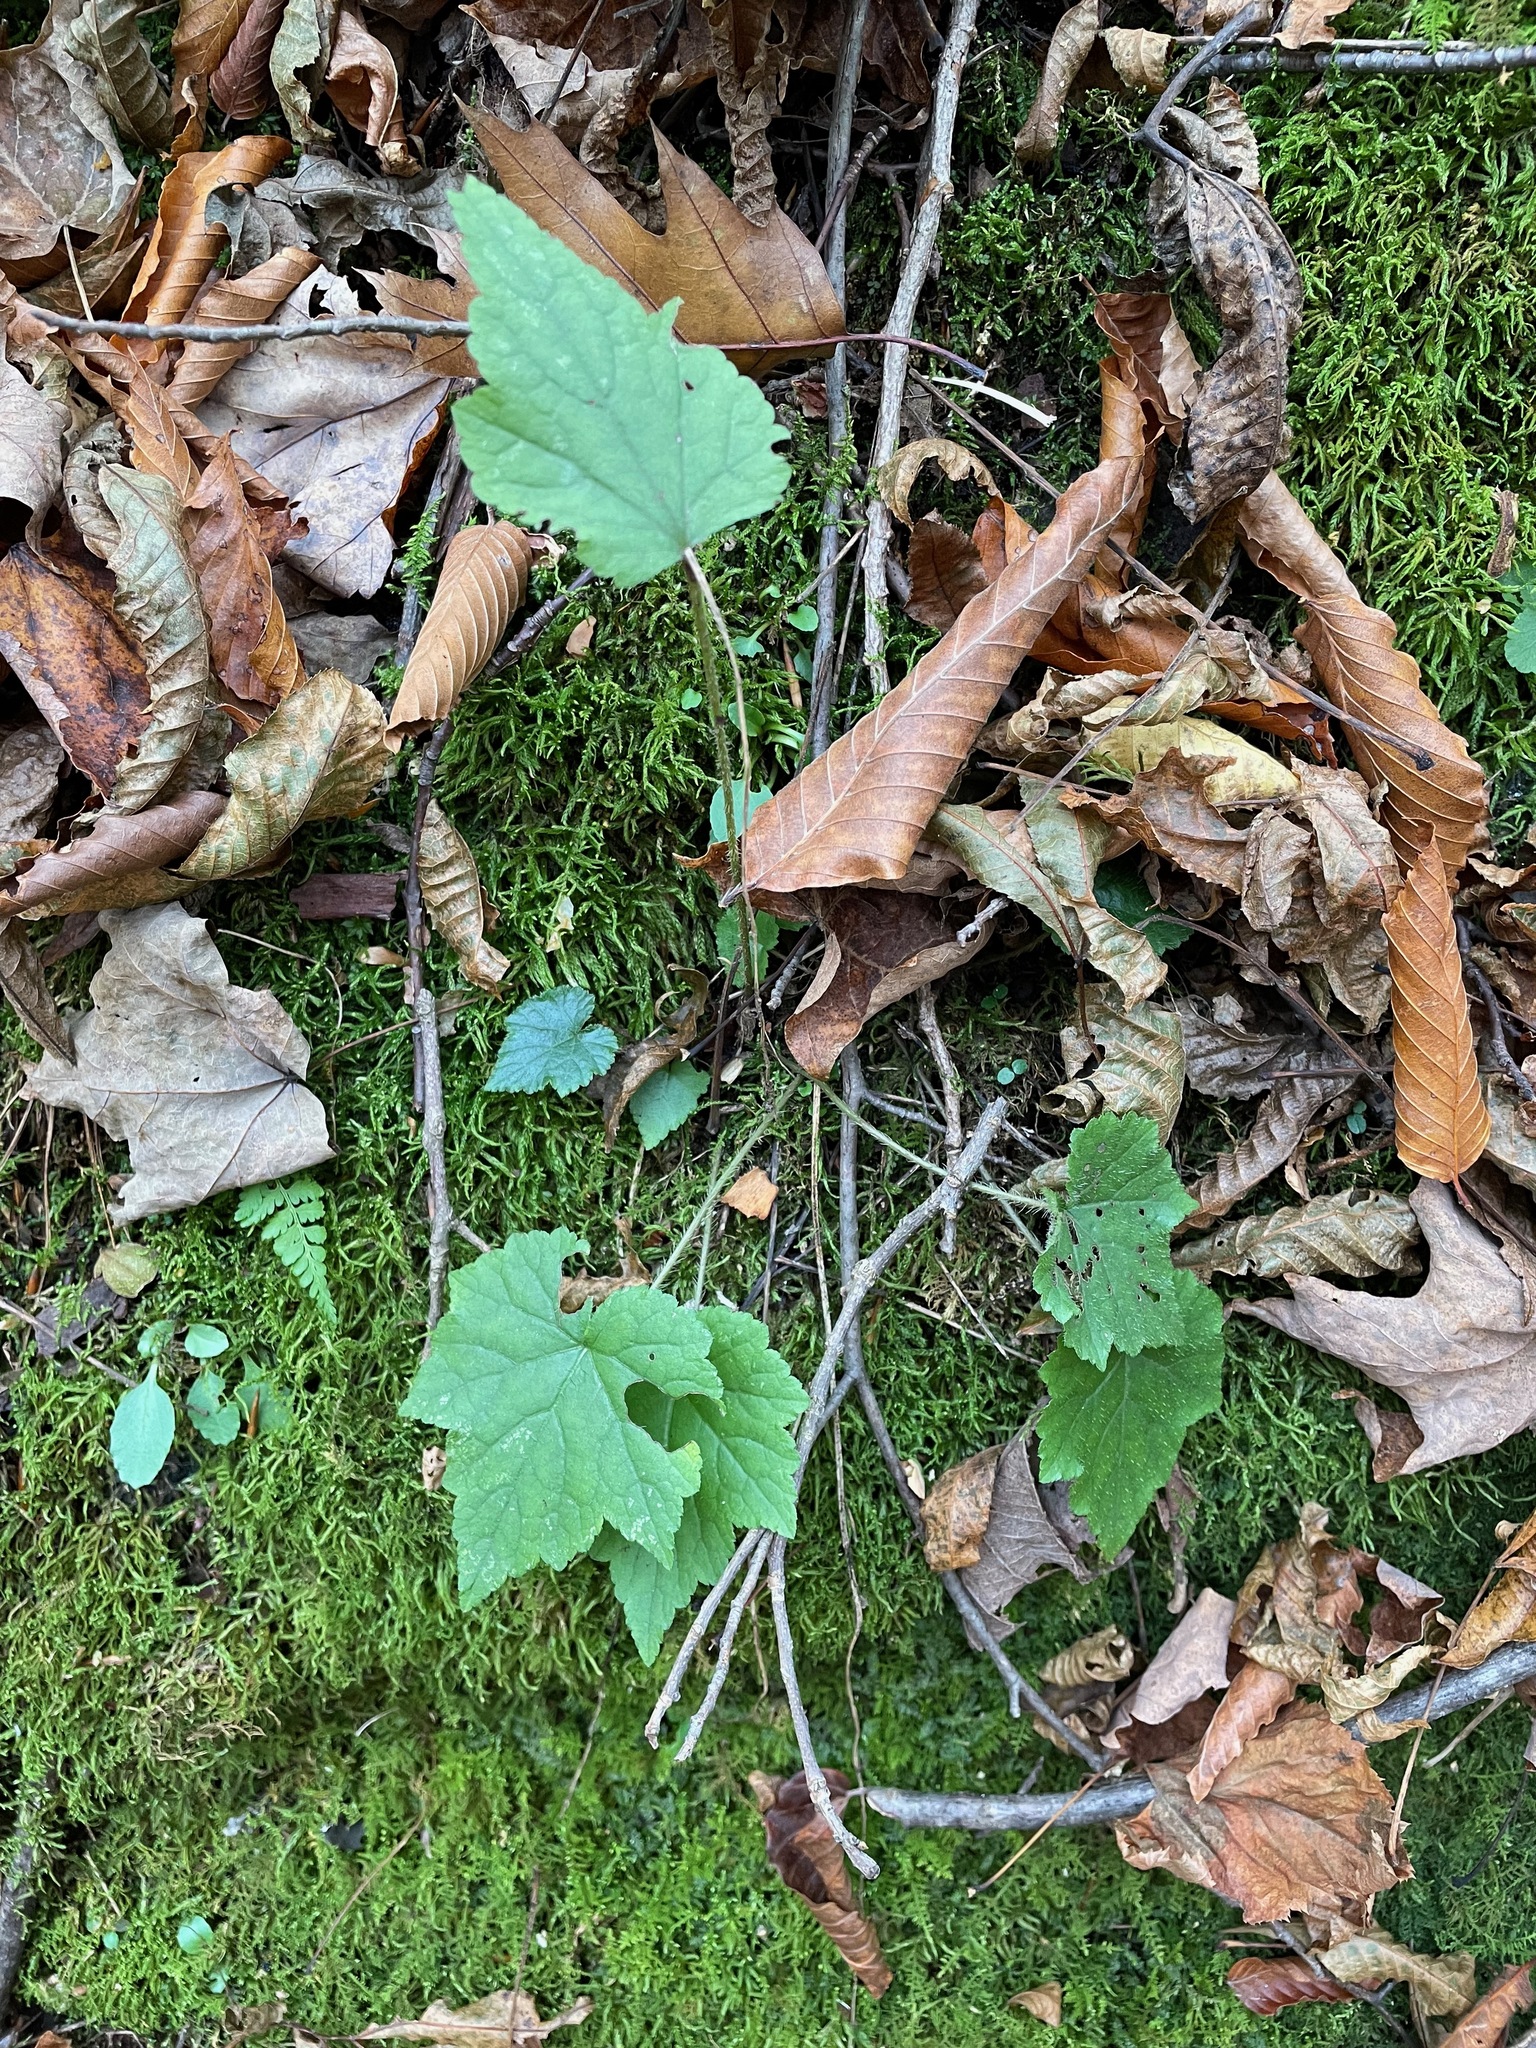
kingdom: Plantae
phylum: Tracheophyta
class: Magnoliopsida
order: Saxifragales
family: Saxifragaceae
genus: Mitella
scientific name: Mitella diphylla
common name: Coolwort
